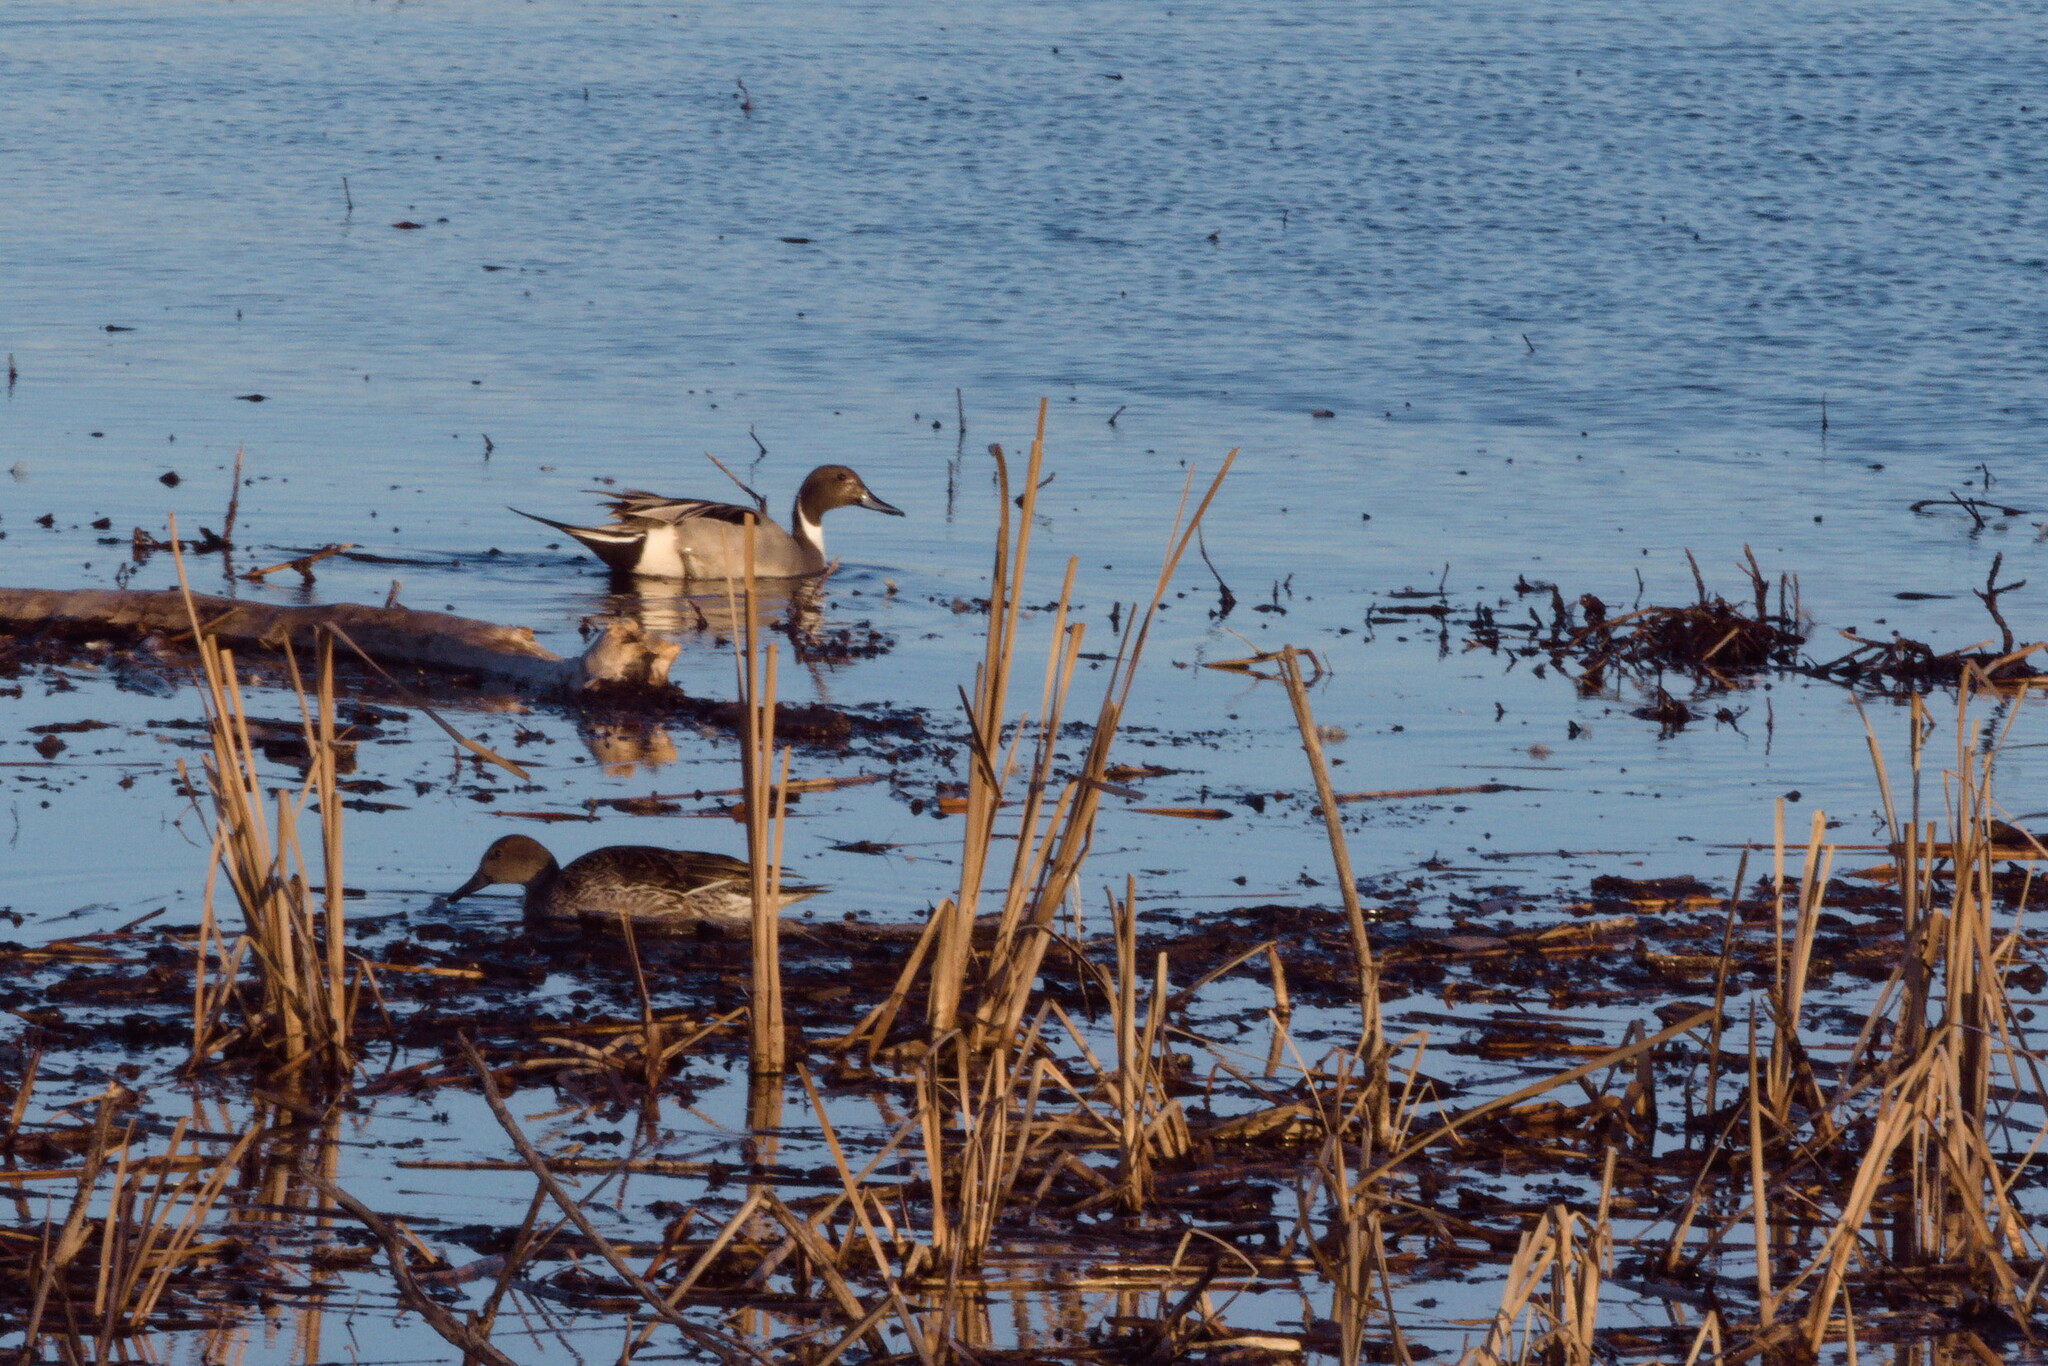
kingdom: Animalia
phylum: Chordata
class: Aves
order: Anseriformes
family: Anatidae
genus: Anas
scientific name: Anas acuta
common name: Northern pintail
